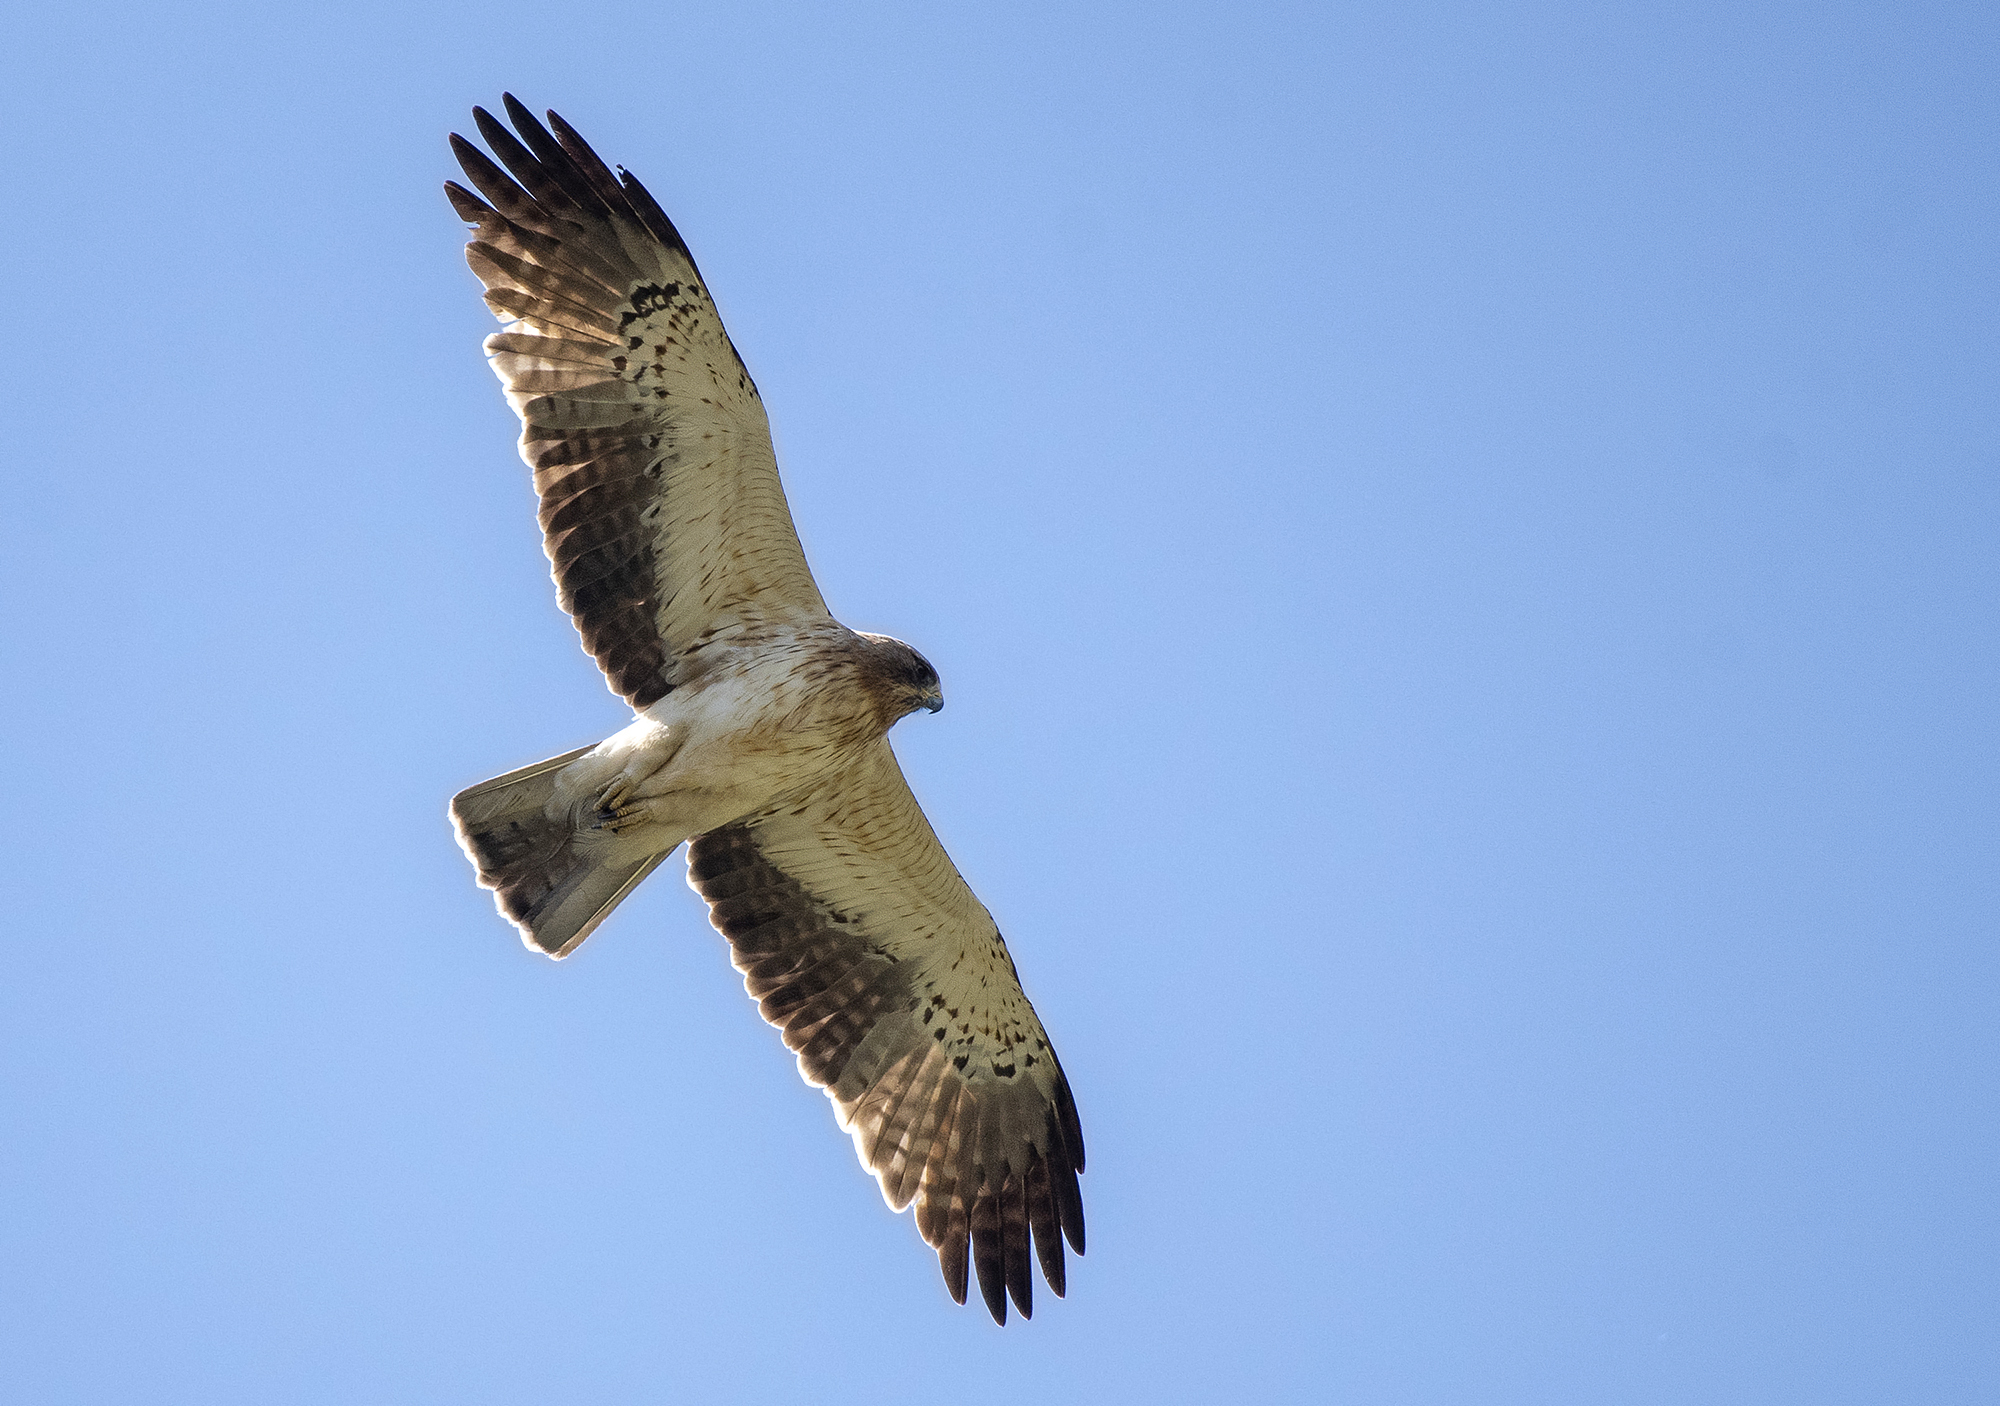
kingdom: Animalia
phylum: Chordata
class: Aves
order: Accipitriformes
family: Accipitridae
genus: Hieraaetus
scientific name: Hieraaetus pennatus
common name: Booted eagle
